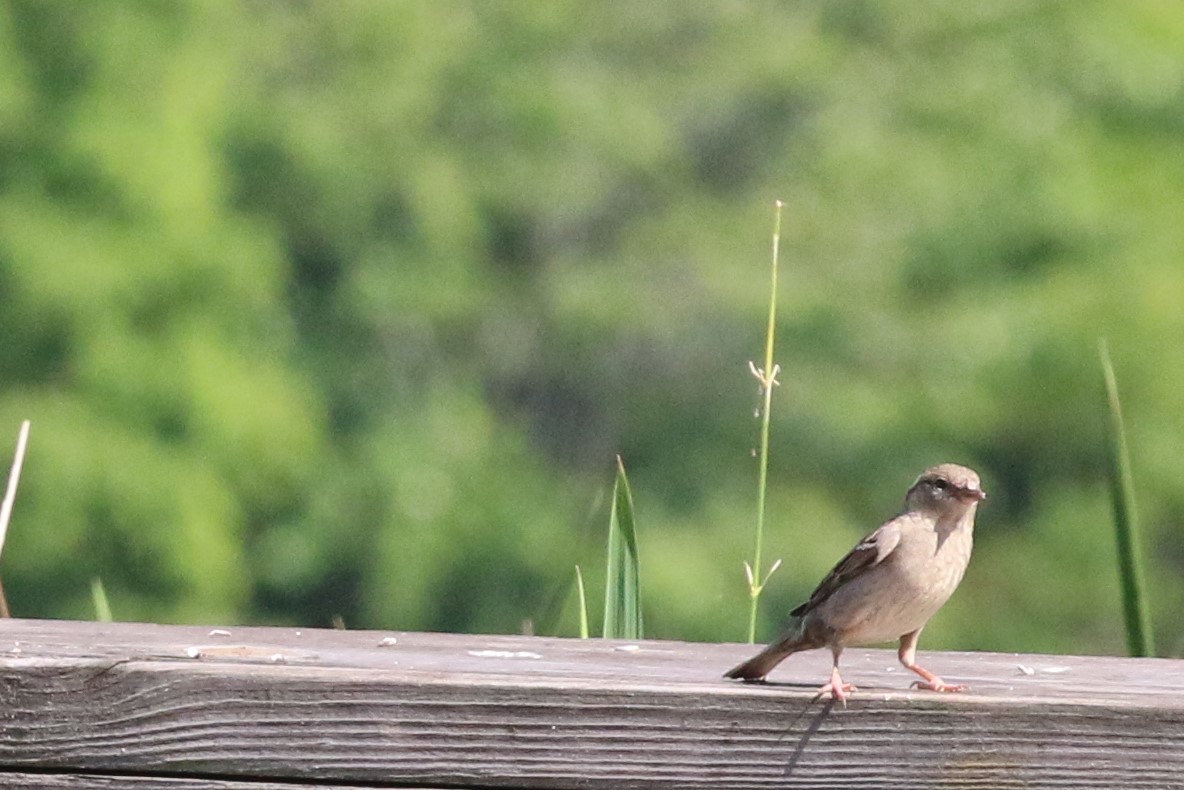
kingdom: Animalia
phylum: Chordata
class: Aves
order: Passeriformes
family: Passeridae
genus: Passer
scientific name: Passer domesticus
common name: House sparrow
